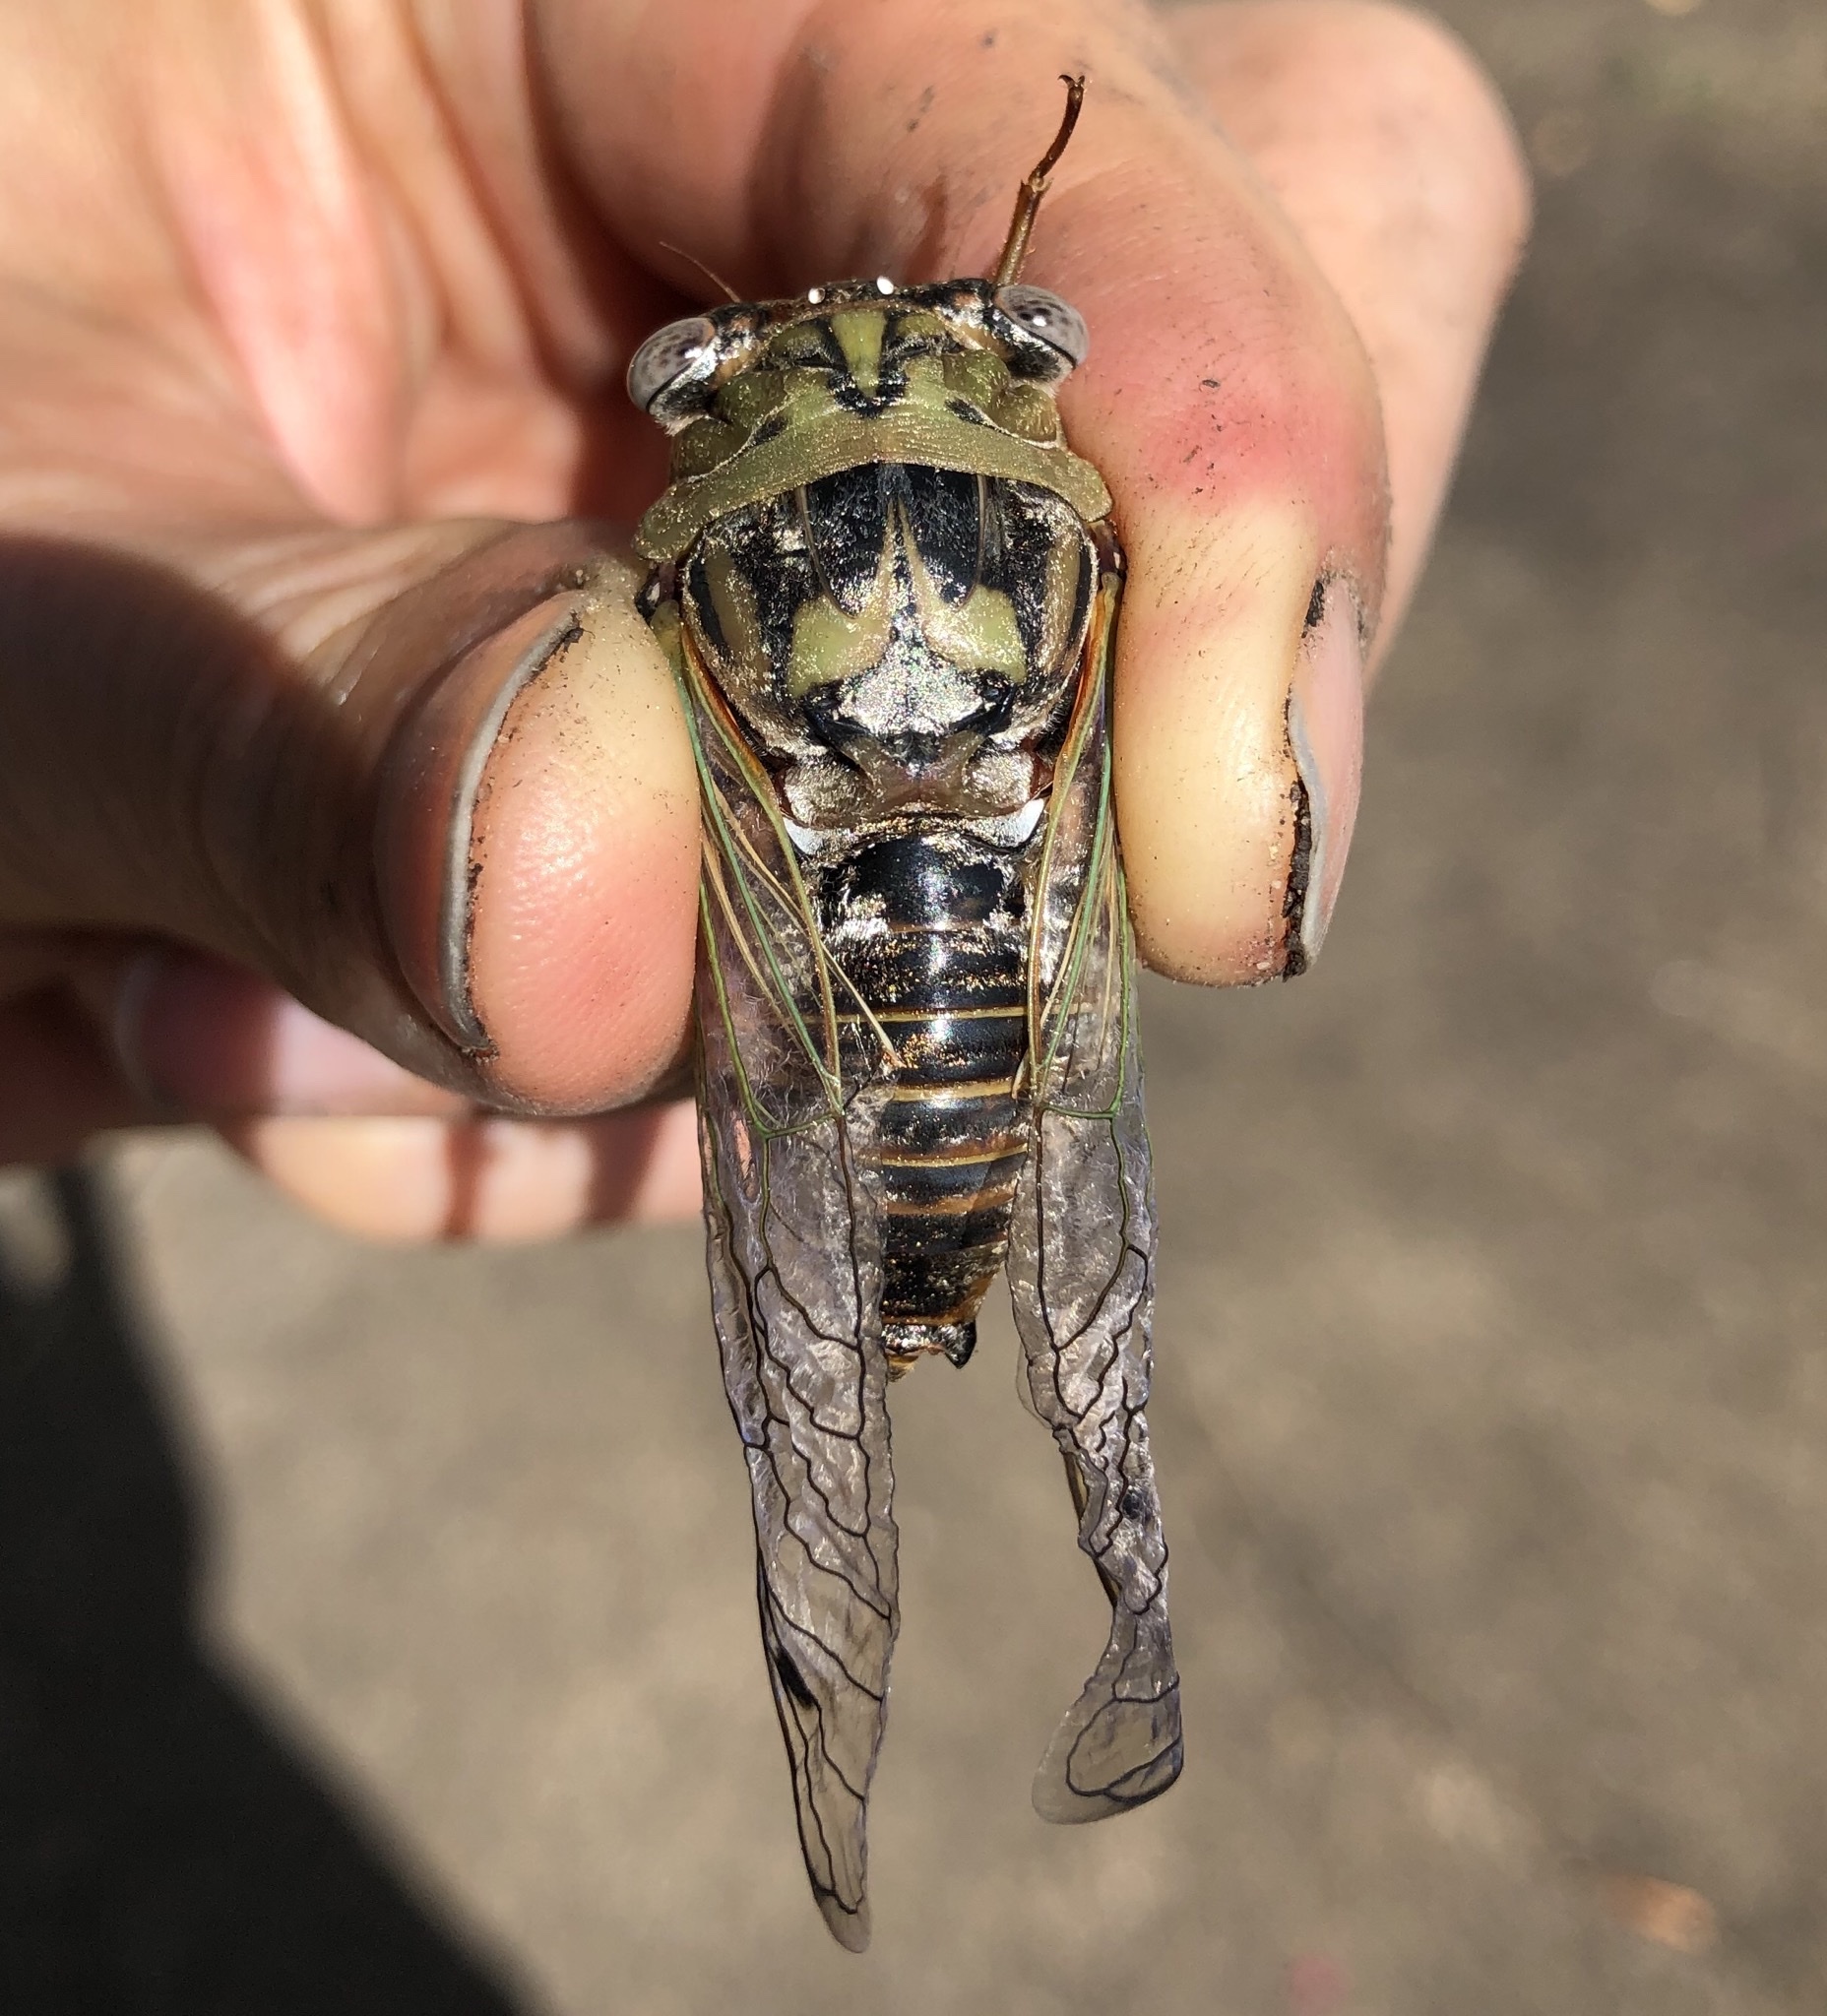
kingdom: Animalia
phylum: Arthropoda
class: Insecta
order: Hemiptera
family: Cicadidae
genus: Megatibicen
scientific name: Megatibicen resh
